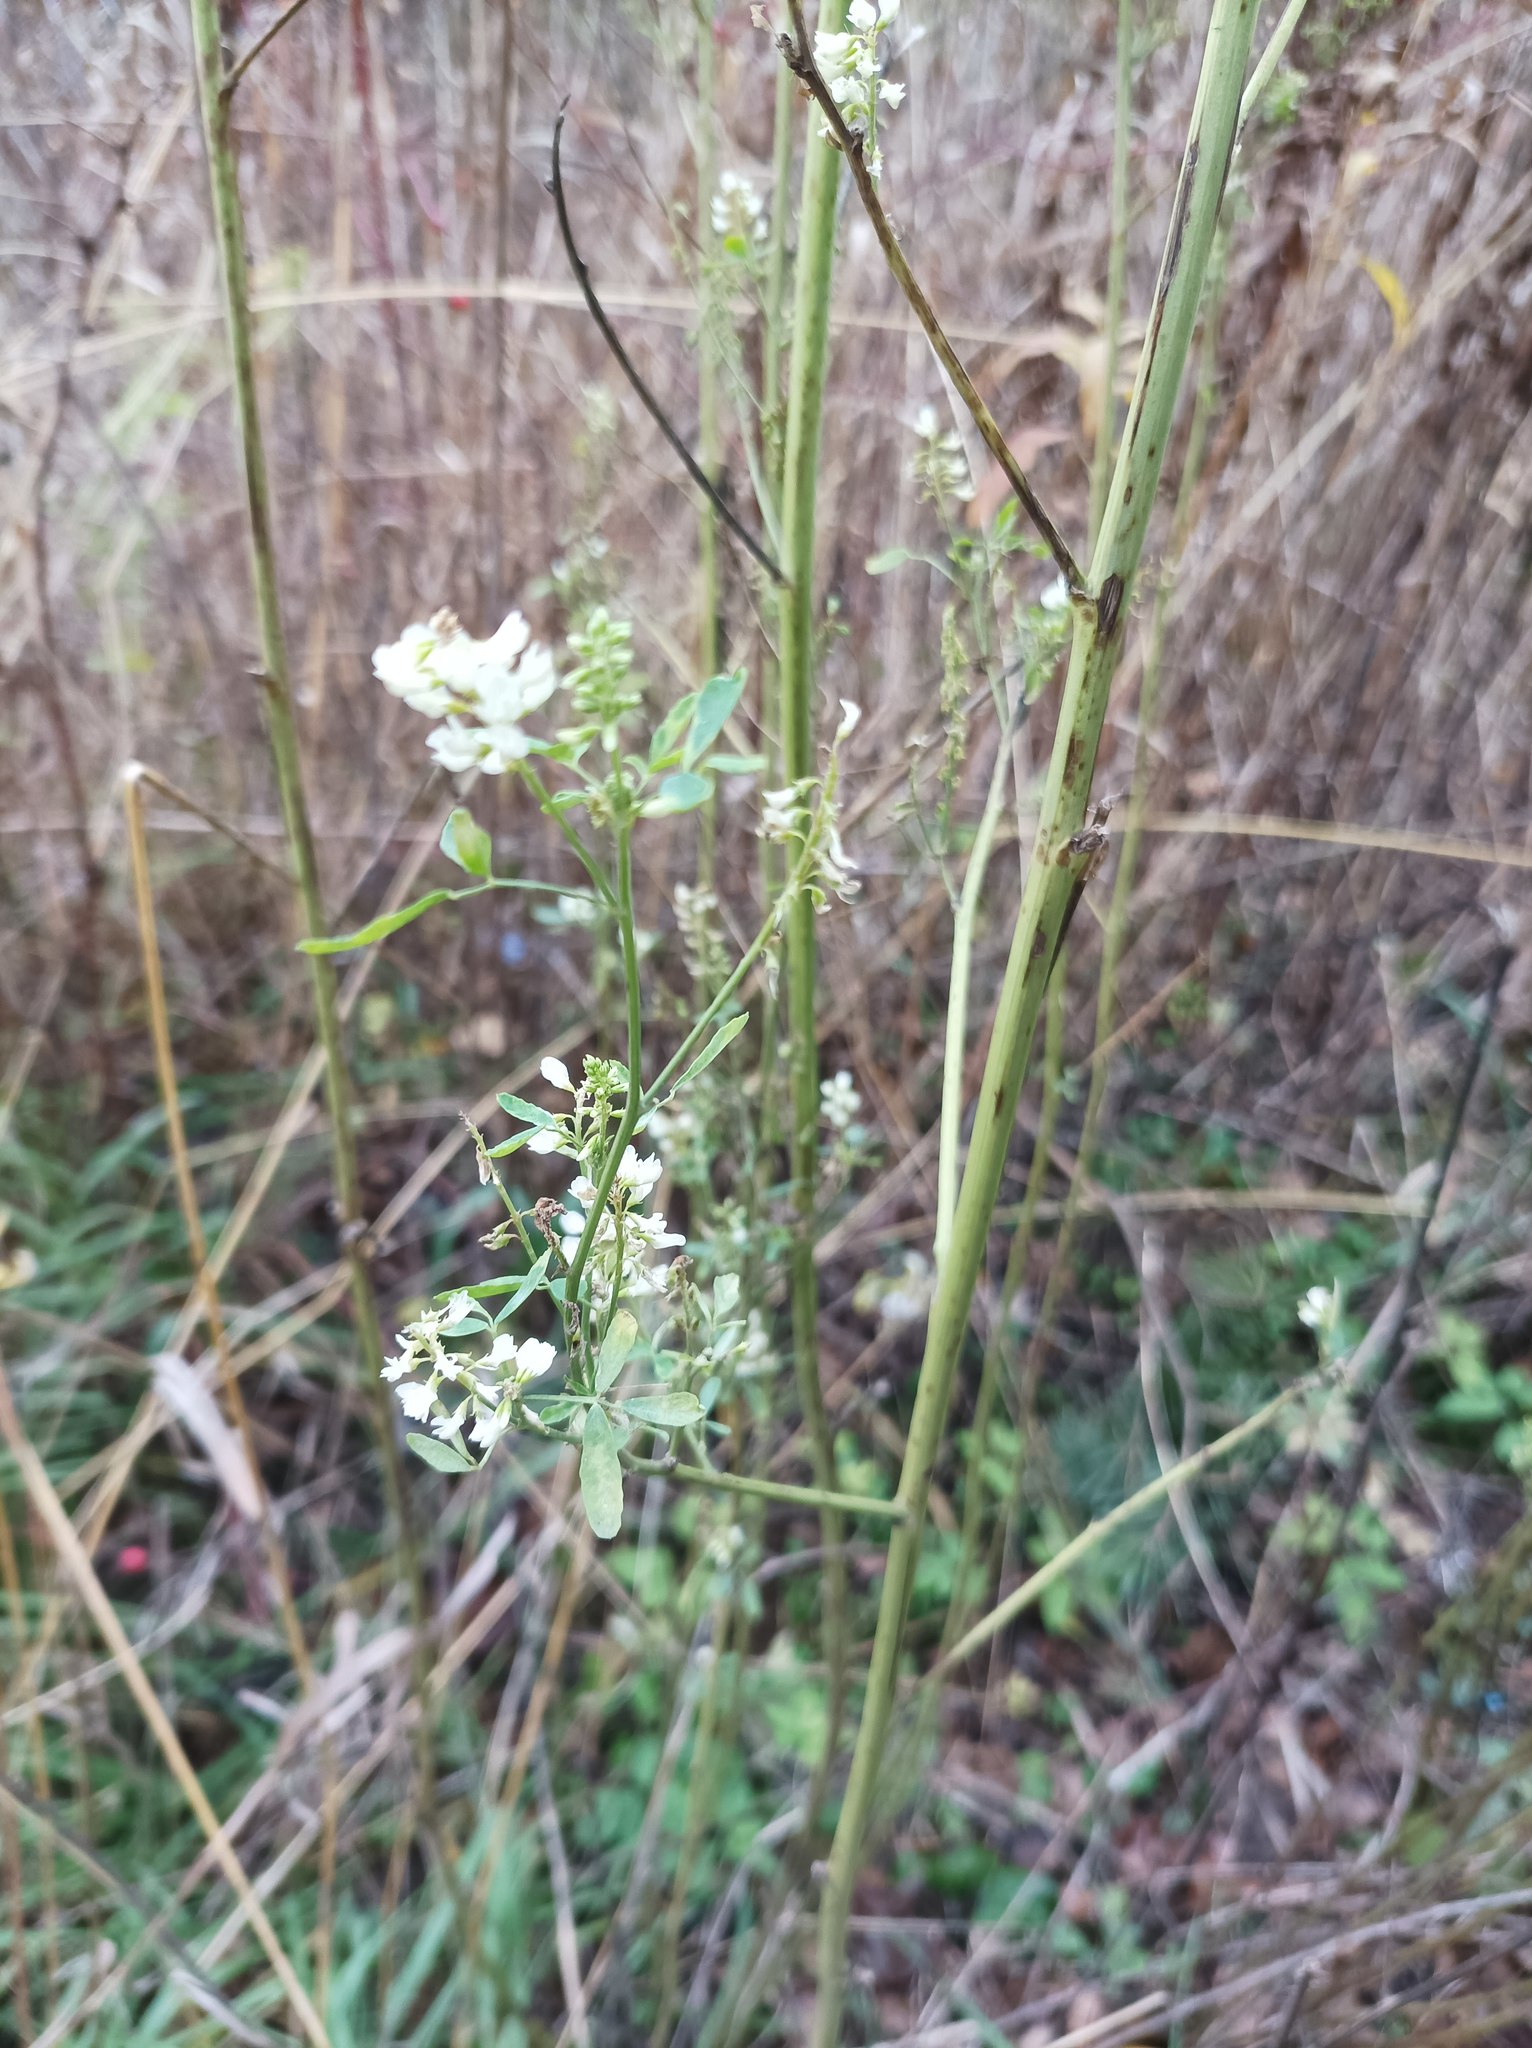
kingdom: Plantae
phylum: Tracheophyta
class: Magnoliopsida
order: Fabales
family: Fabaceae
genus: Melilotus
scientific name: Melilotus albus
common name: White melilot
